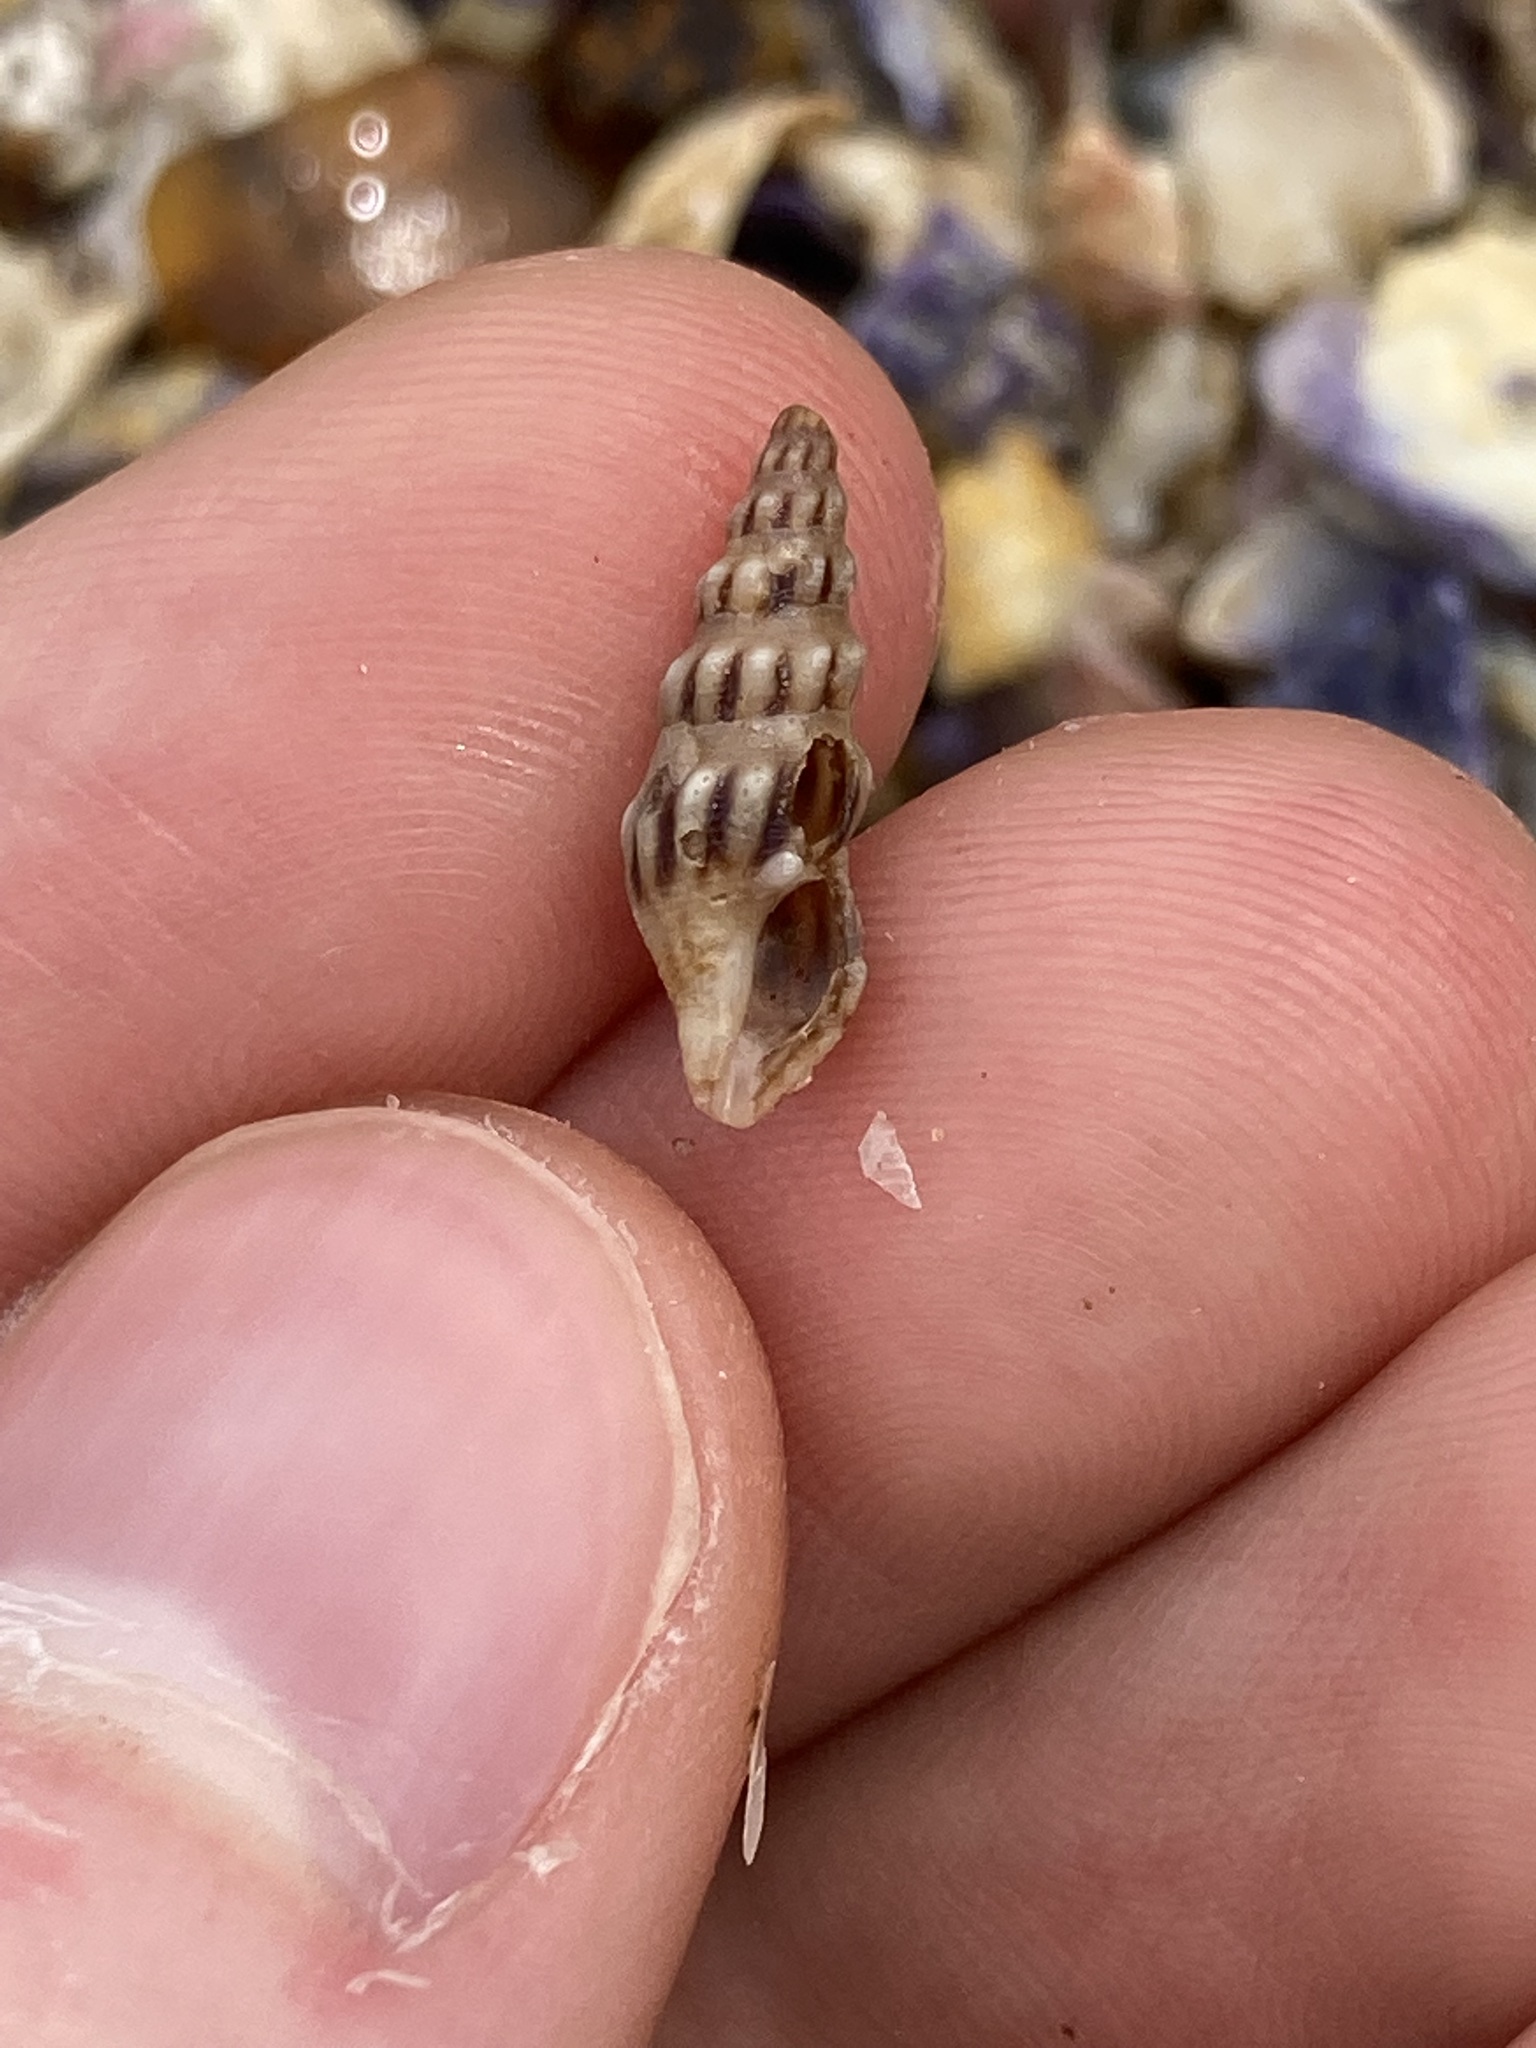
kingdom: Animalia
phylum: Mollusca
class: Gastropoda
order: Neogastropoda
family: Horaiclavidae
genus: Austrodrillia
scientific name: Austrodrillia angasi
